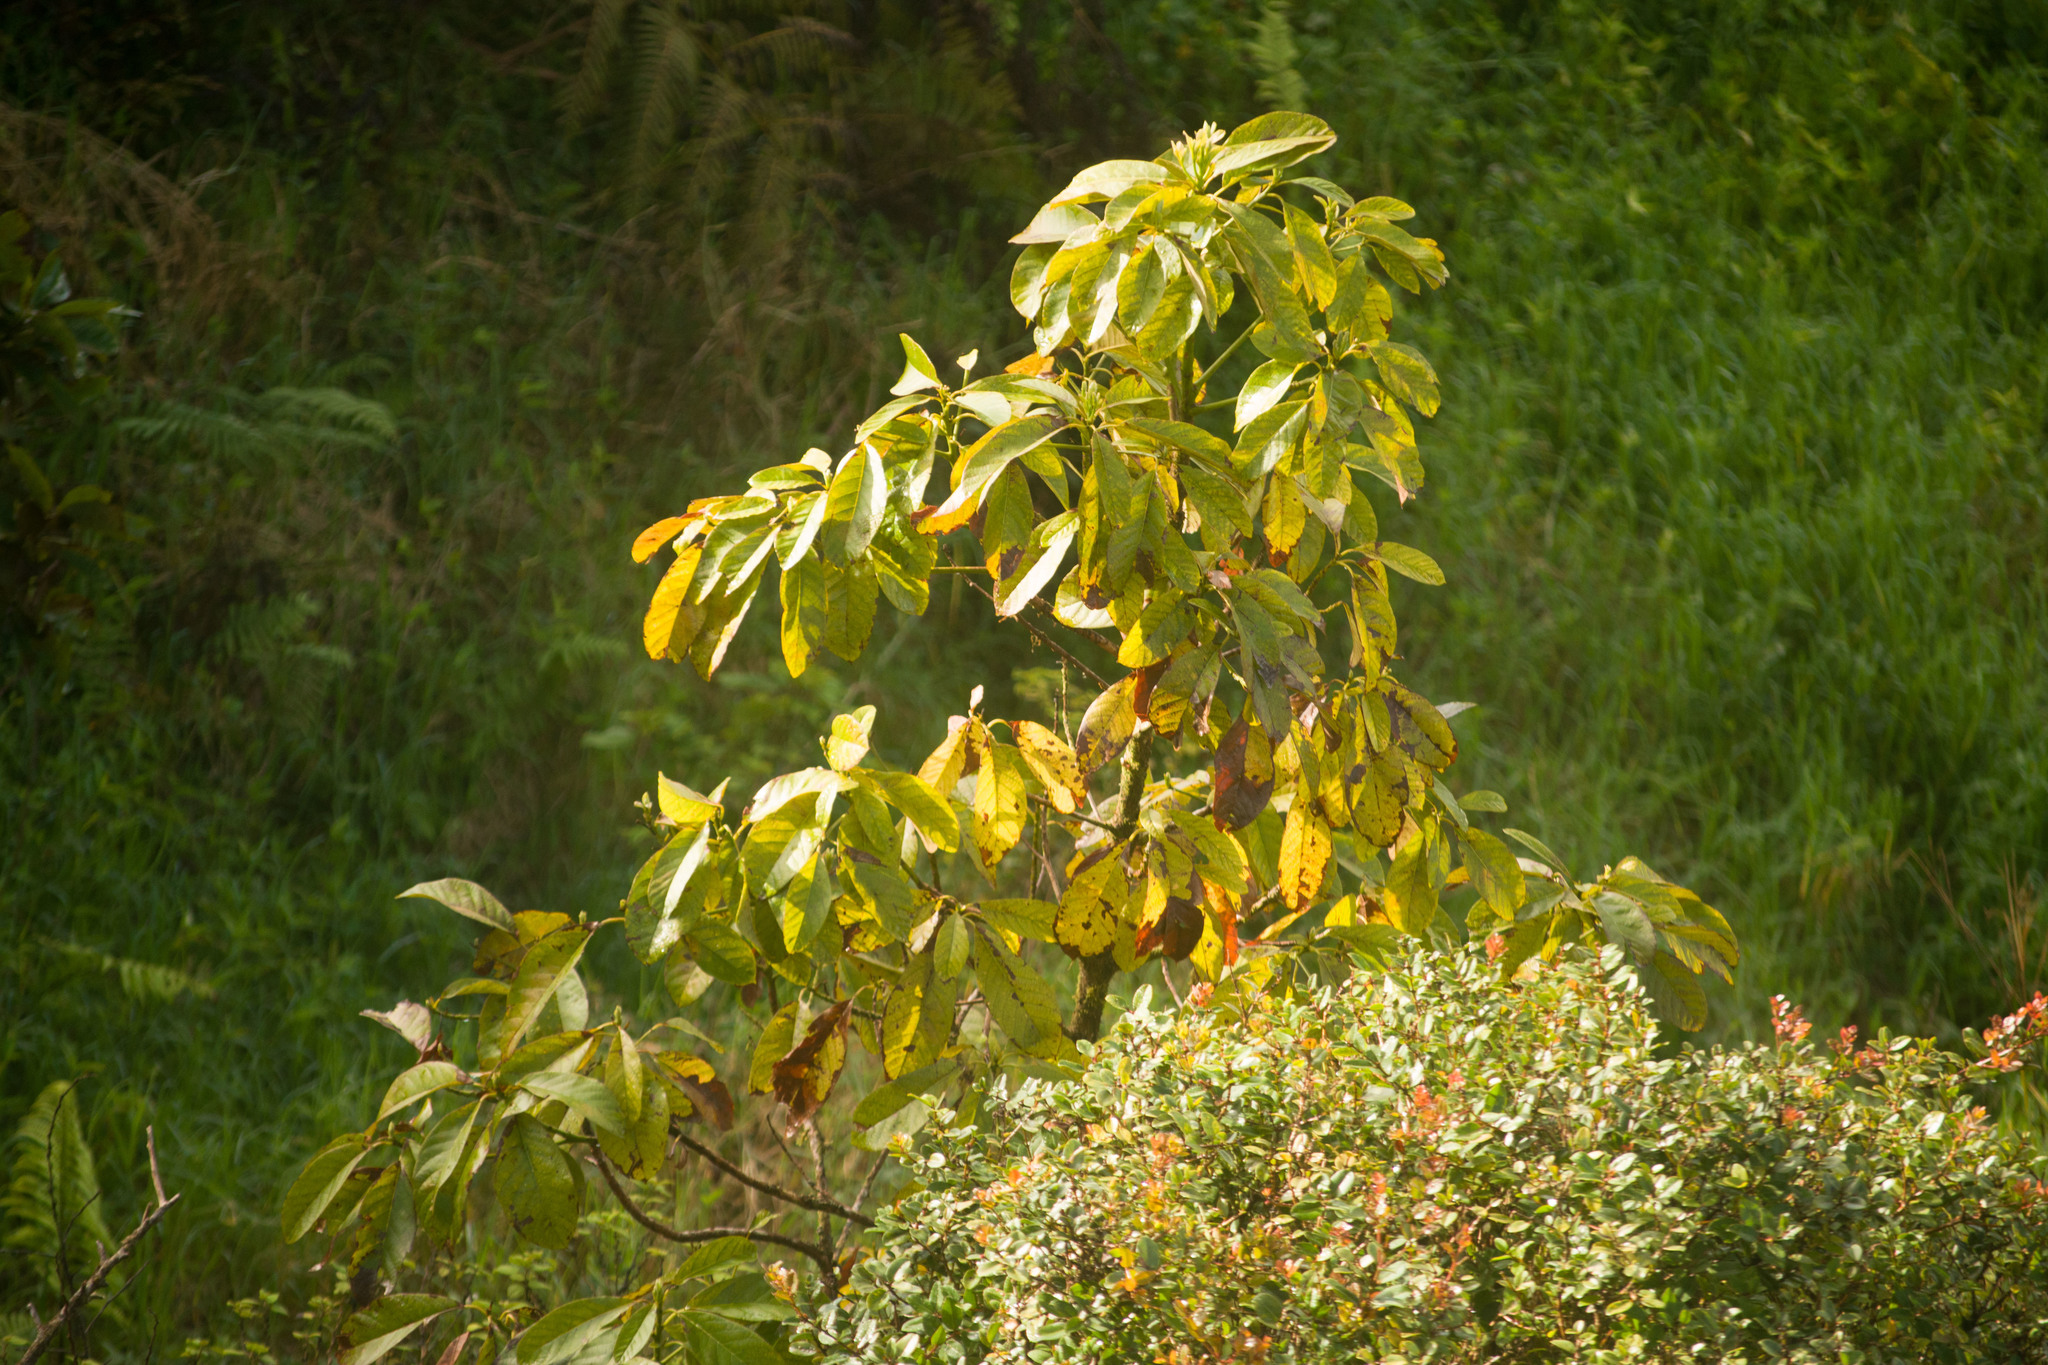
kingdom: Plantae
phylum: Tracheophyta
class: Magnoliopsida
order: Laurales
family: Lauraceae
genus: Persea
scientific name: Persea americana
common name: Avocado
